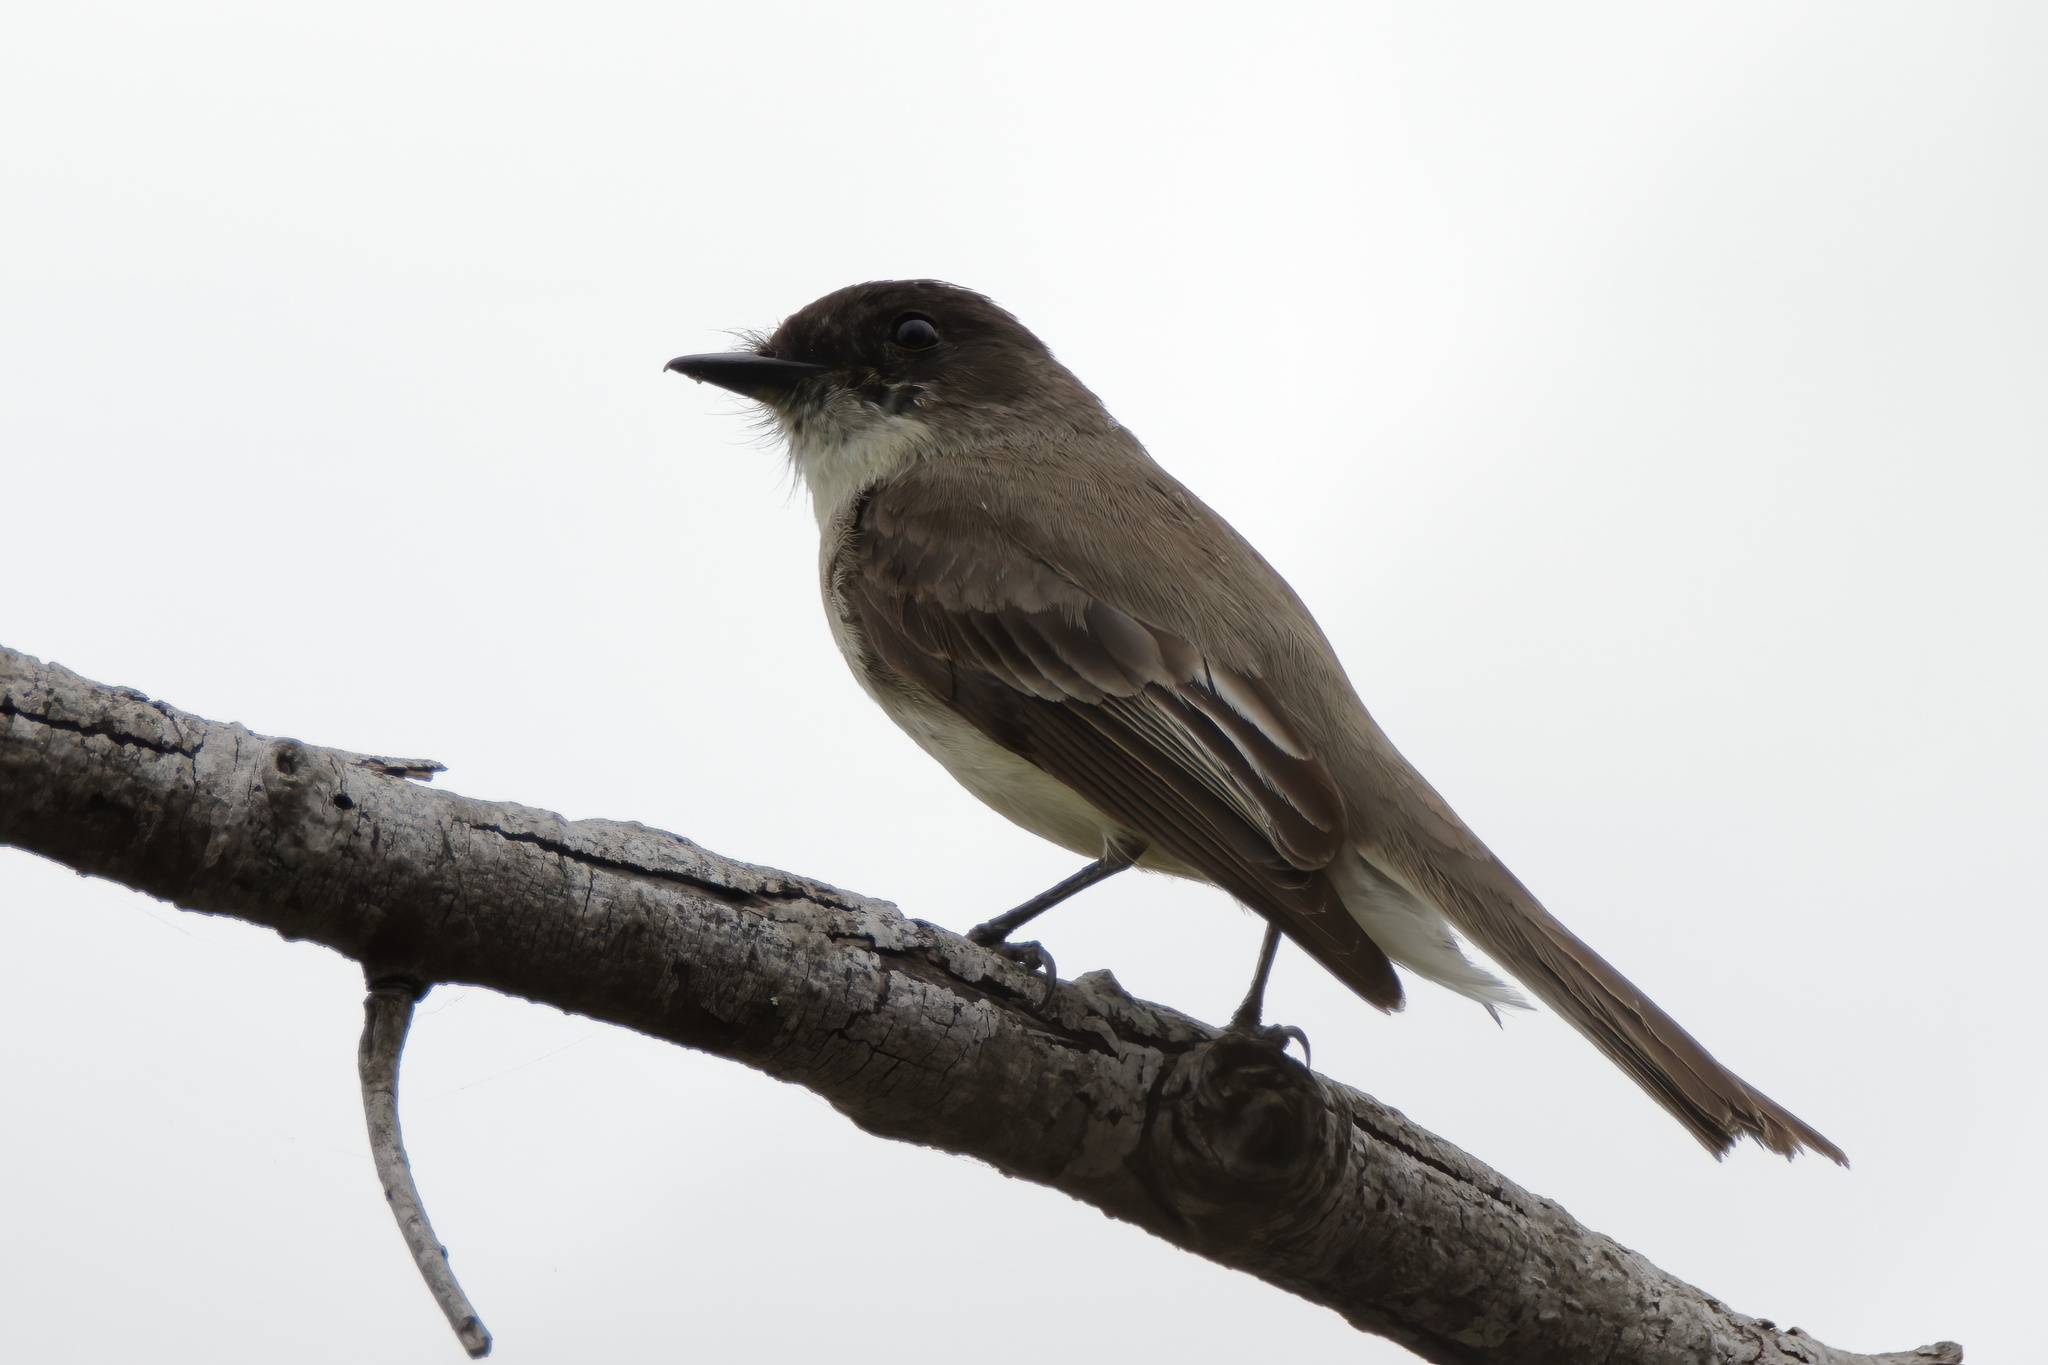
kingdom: Animalia
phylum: Chordata
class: Aves
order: Passeriformes
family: Tyrannidae
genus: Sayornis
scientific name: Sayornis phoebe
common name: Eastern phoebe
